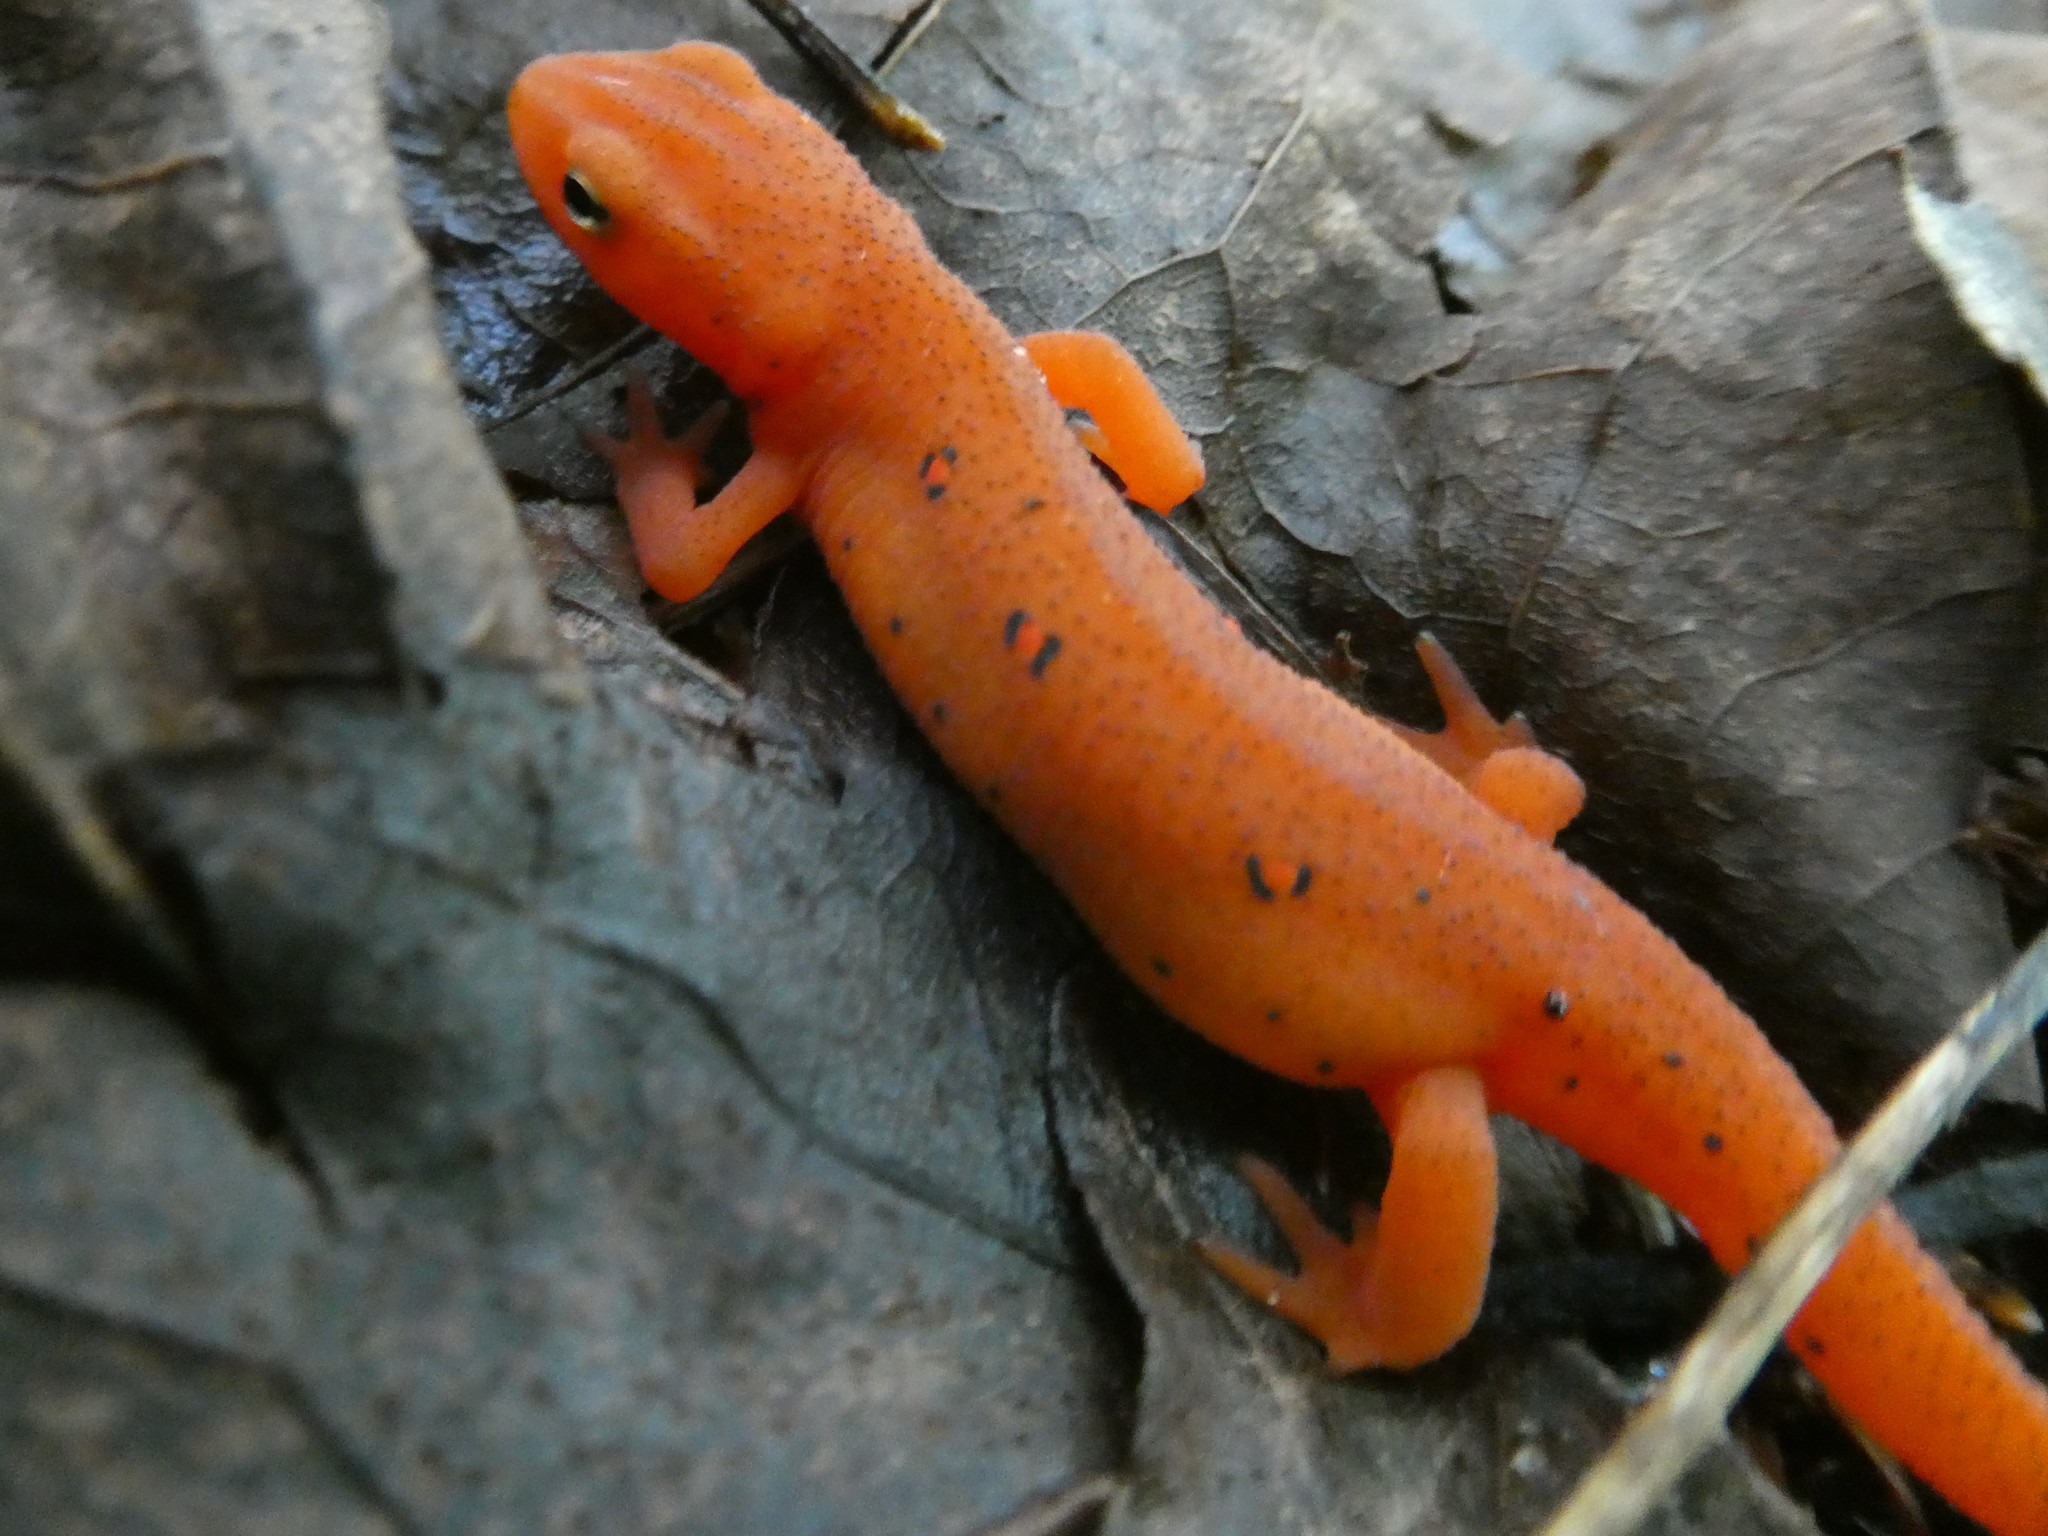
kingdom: Animalia
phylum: Chordata
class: Amphibia
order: Caudata
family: Salamandridae
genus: Notophthalmus
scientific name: Notophthalmus viridescens
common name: Eastern newt
